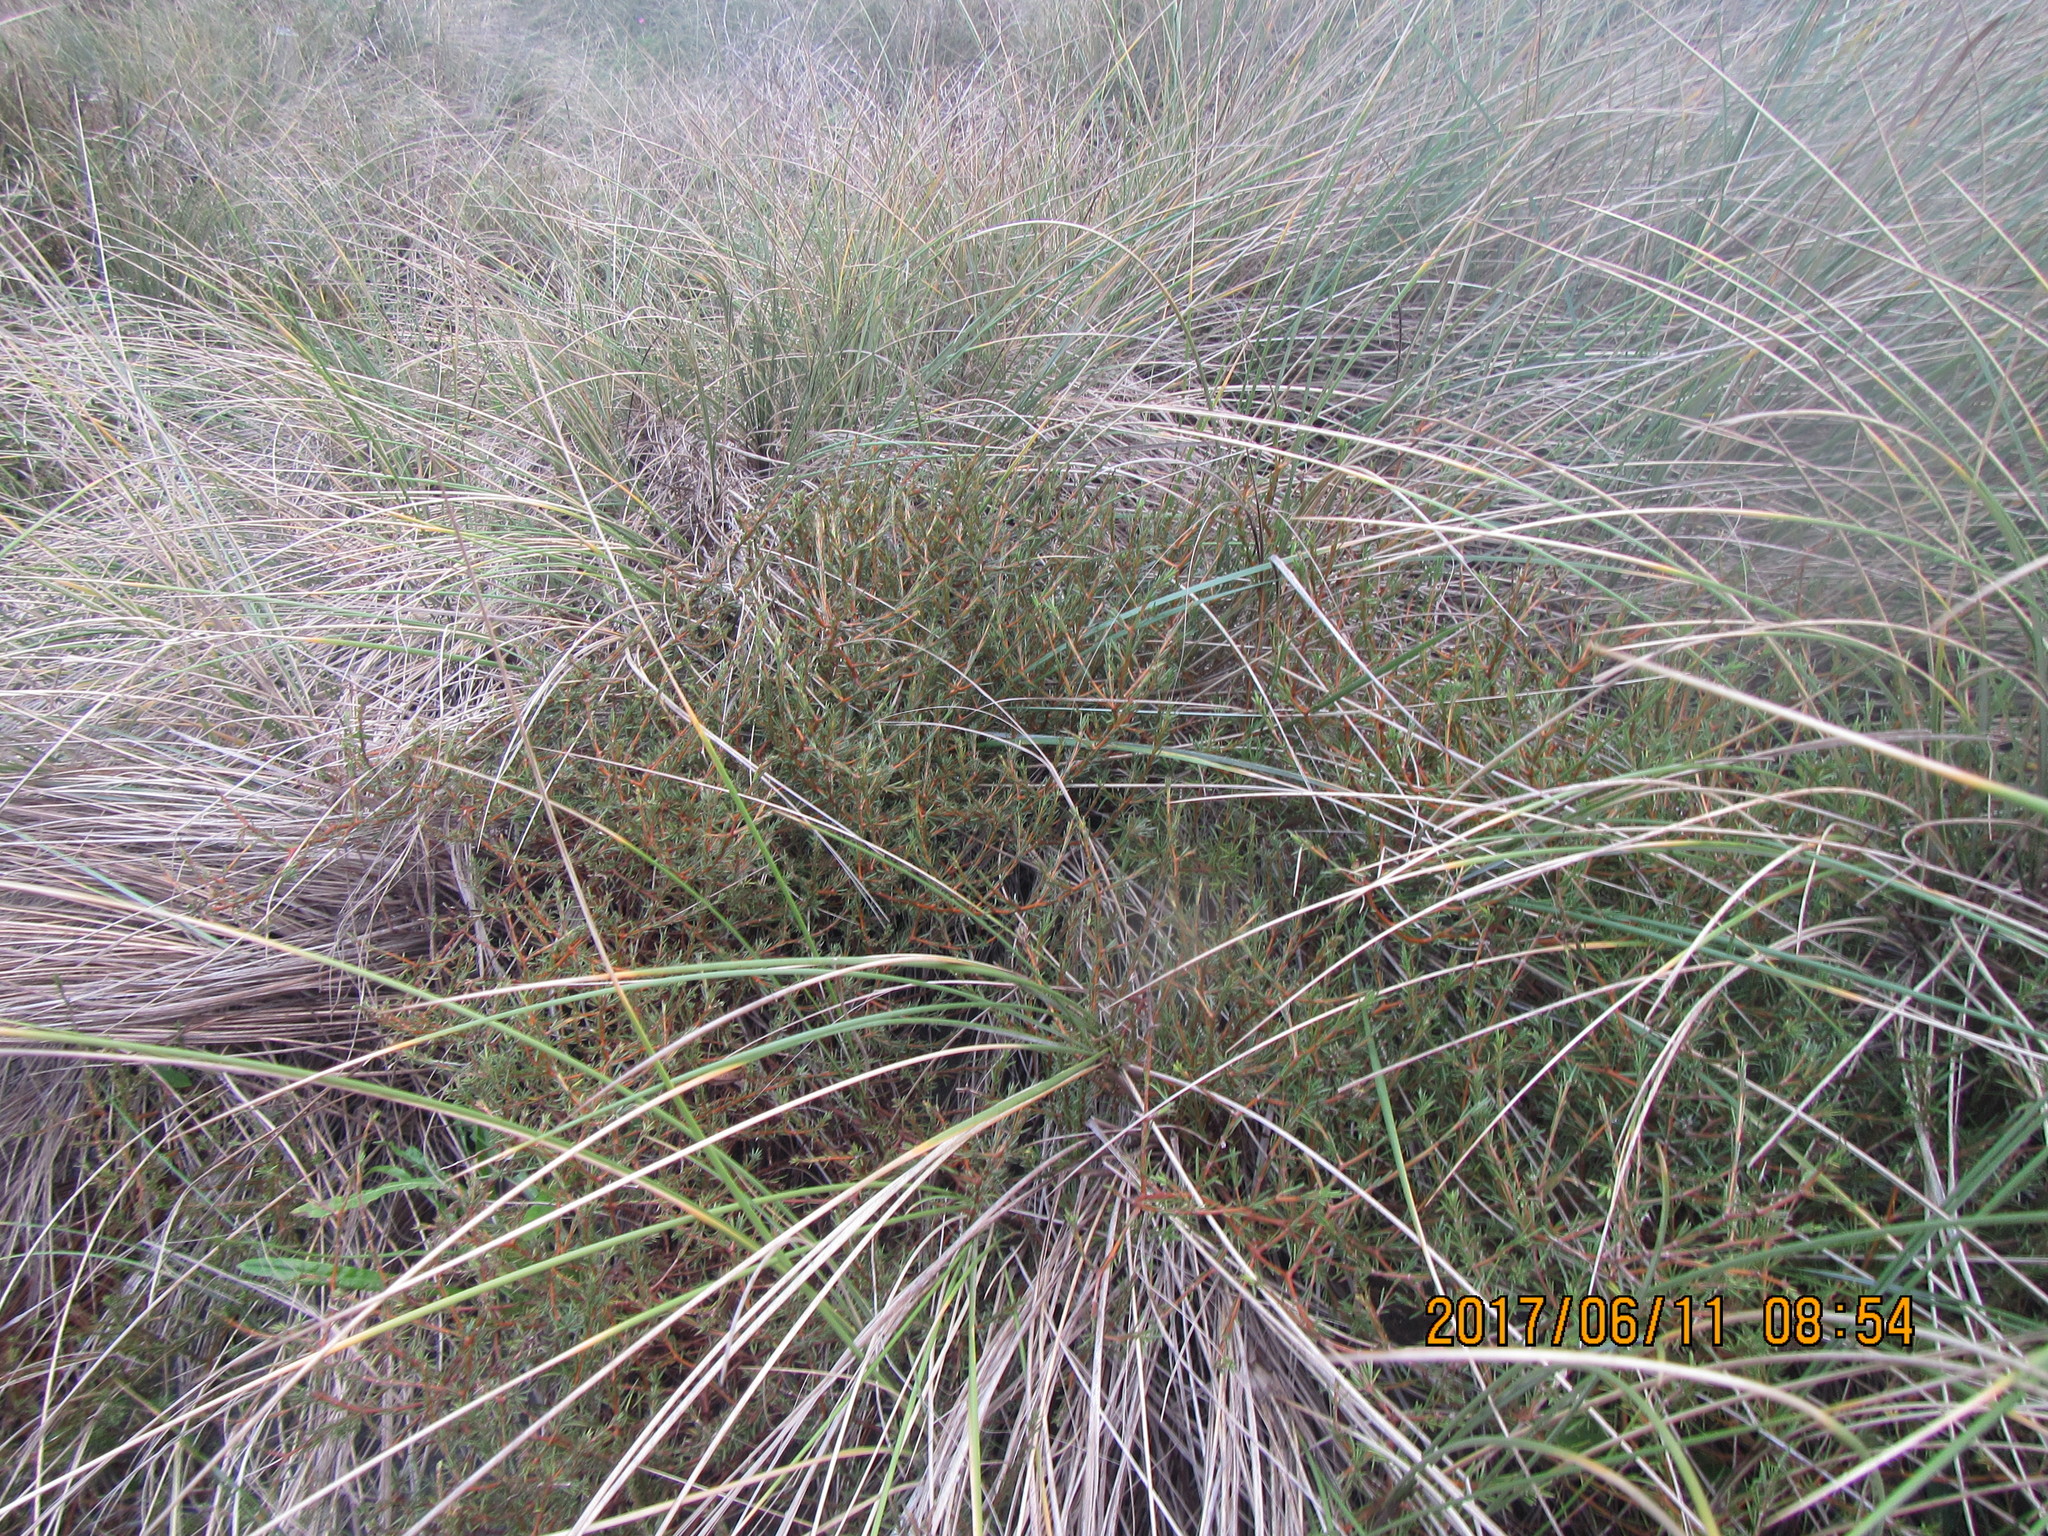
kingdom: Plantae
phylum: Tracheophyta
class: Magnoliopsida
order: Gentianales
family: Rubiaceae
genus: Coprosma
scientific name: Coprosma acerosa
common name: Sand coprosma
